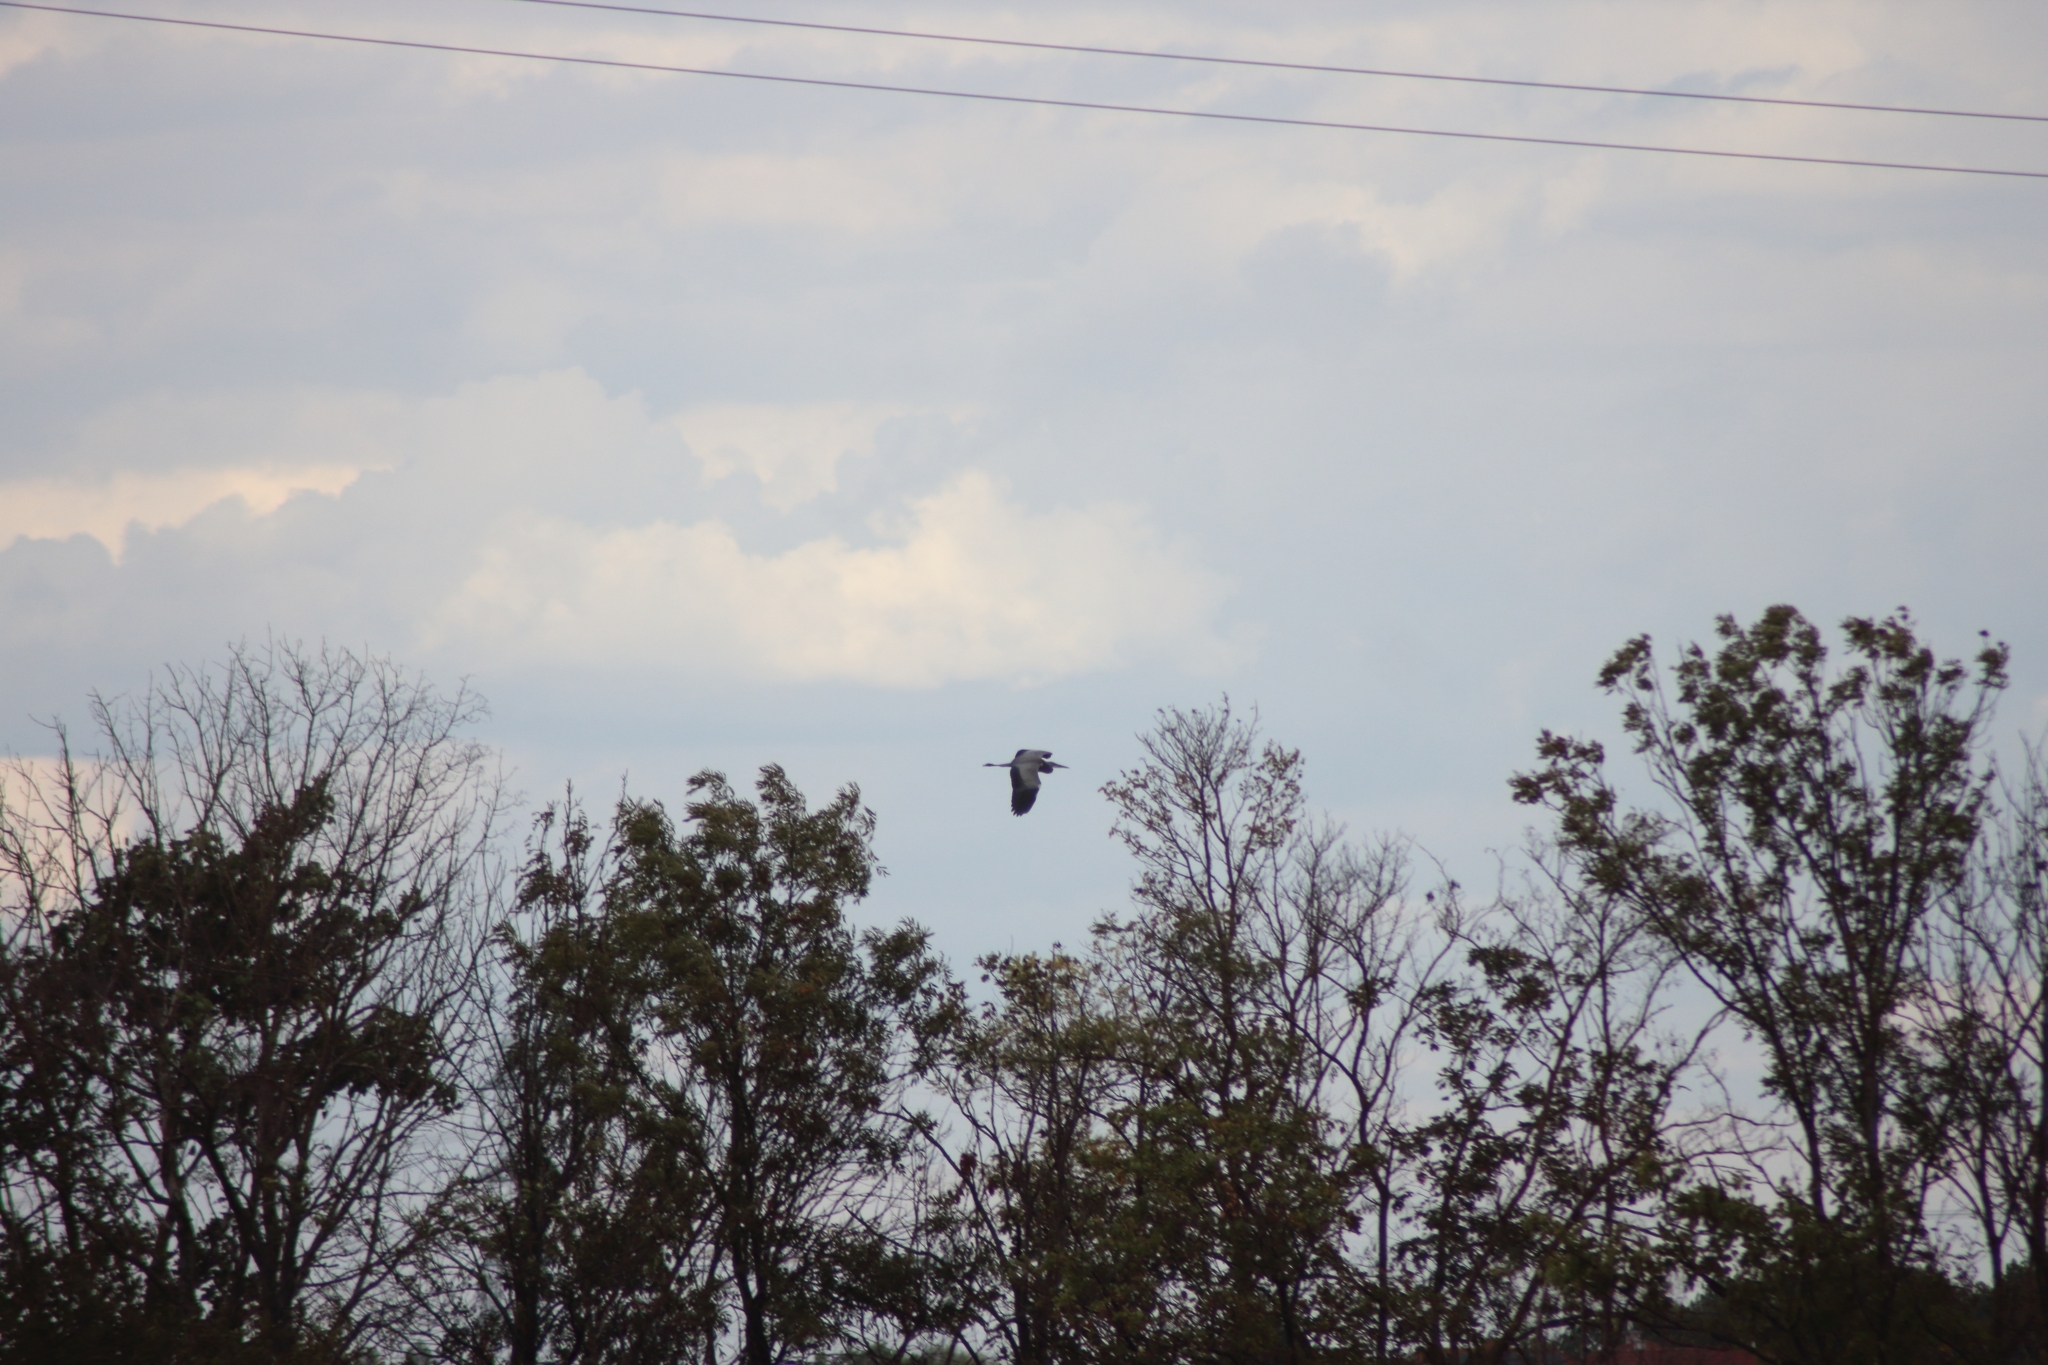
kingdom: Animalia
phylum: Chordata
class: Aves
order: Pelecaniformes
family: Ardeidae
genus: Ardea
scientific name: Ardea cinerea
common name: Grey heron
